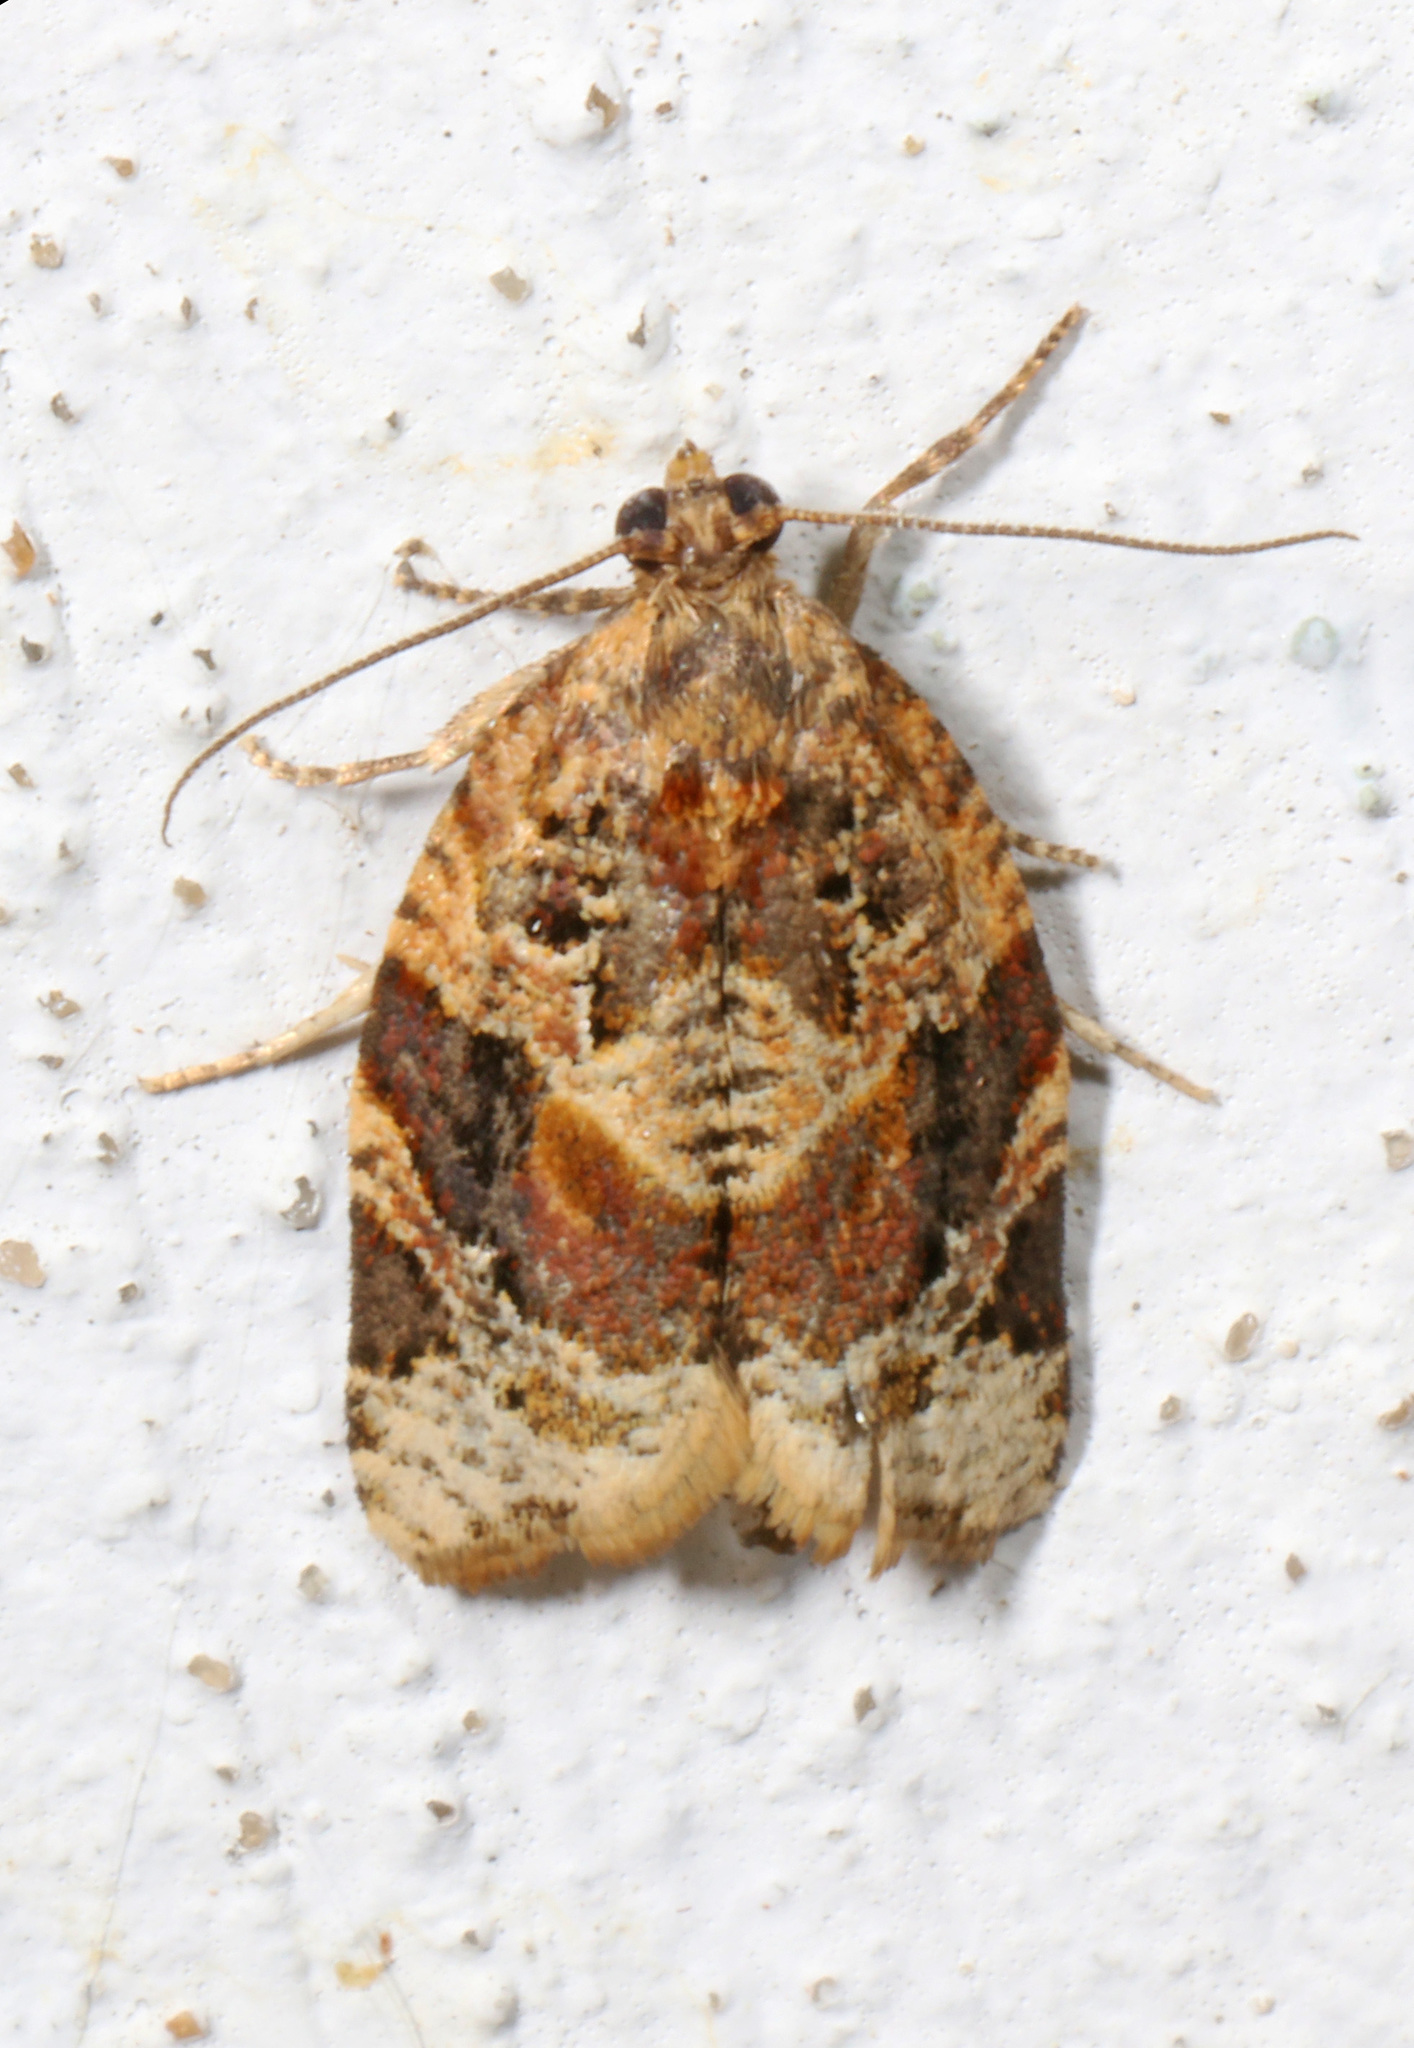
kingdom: Animalia
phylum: Arthropoda
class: Insecta
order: Lepidoptera
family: Tortricidae
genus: Argyrotaenia
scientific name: Argyrotaenia velutinana
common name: Red-banded leafroller moth
